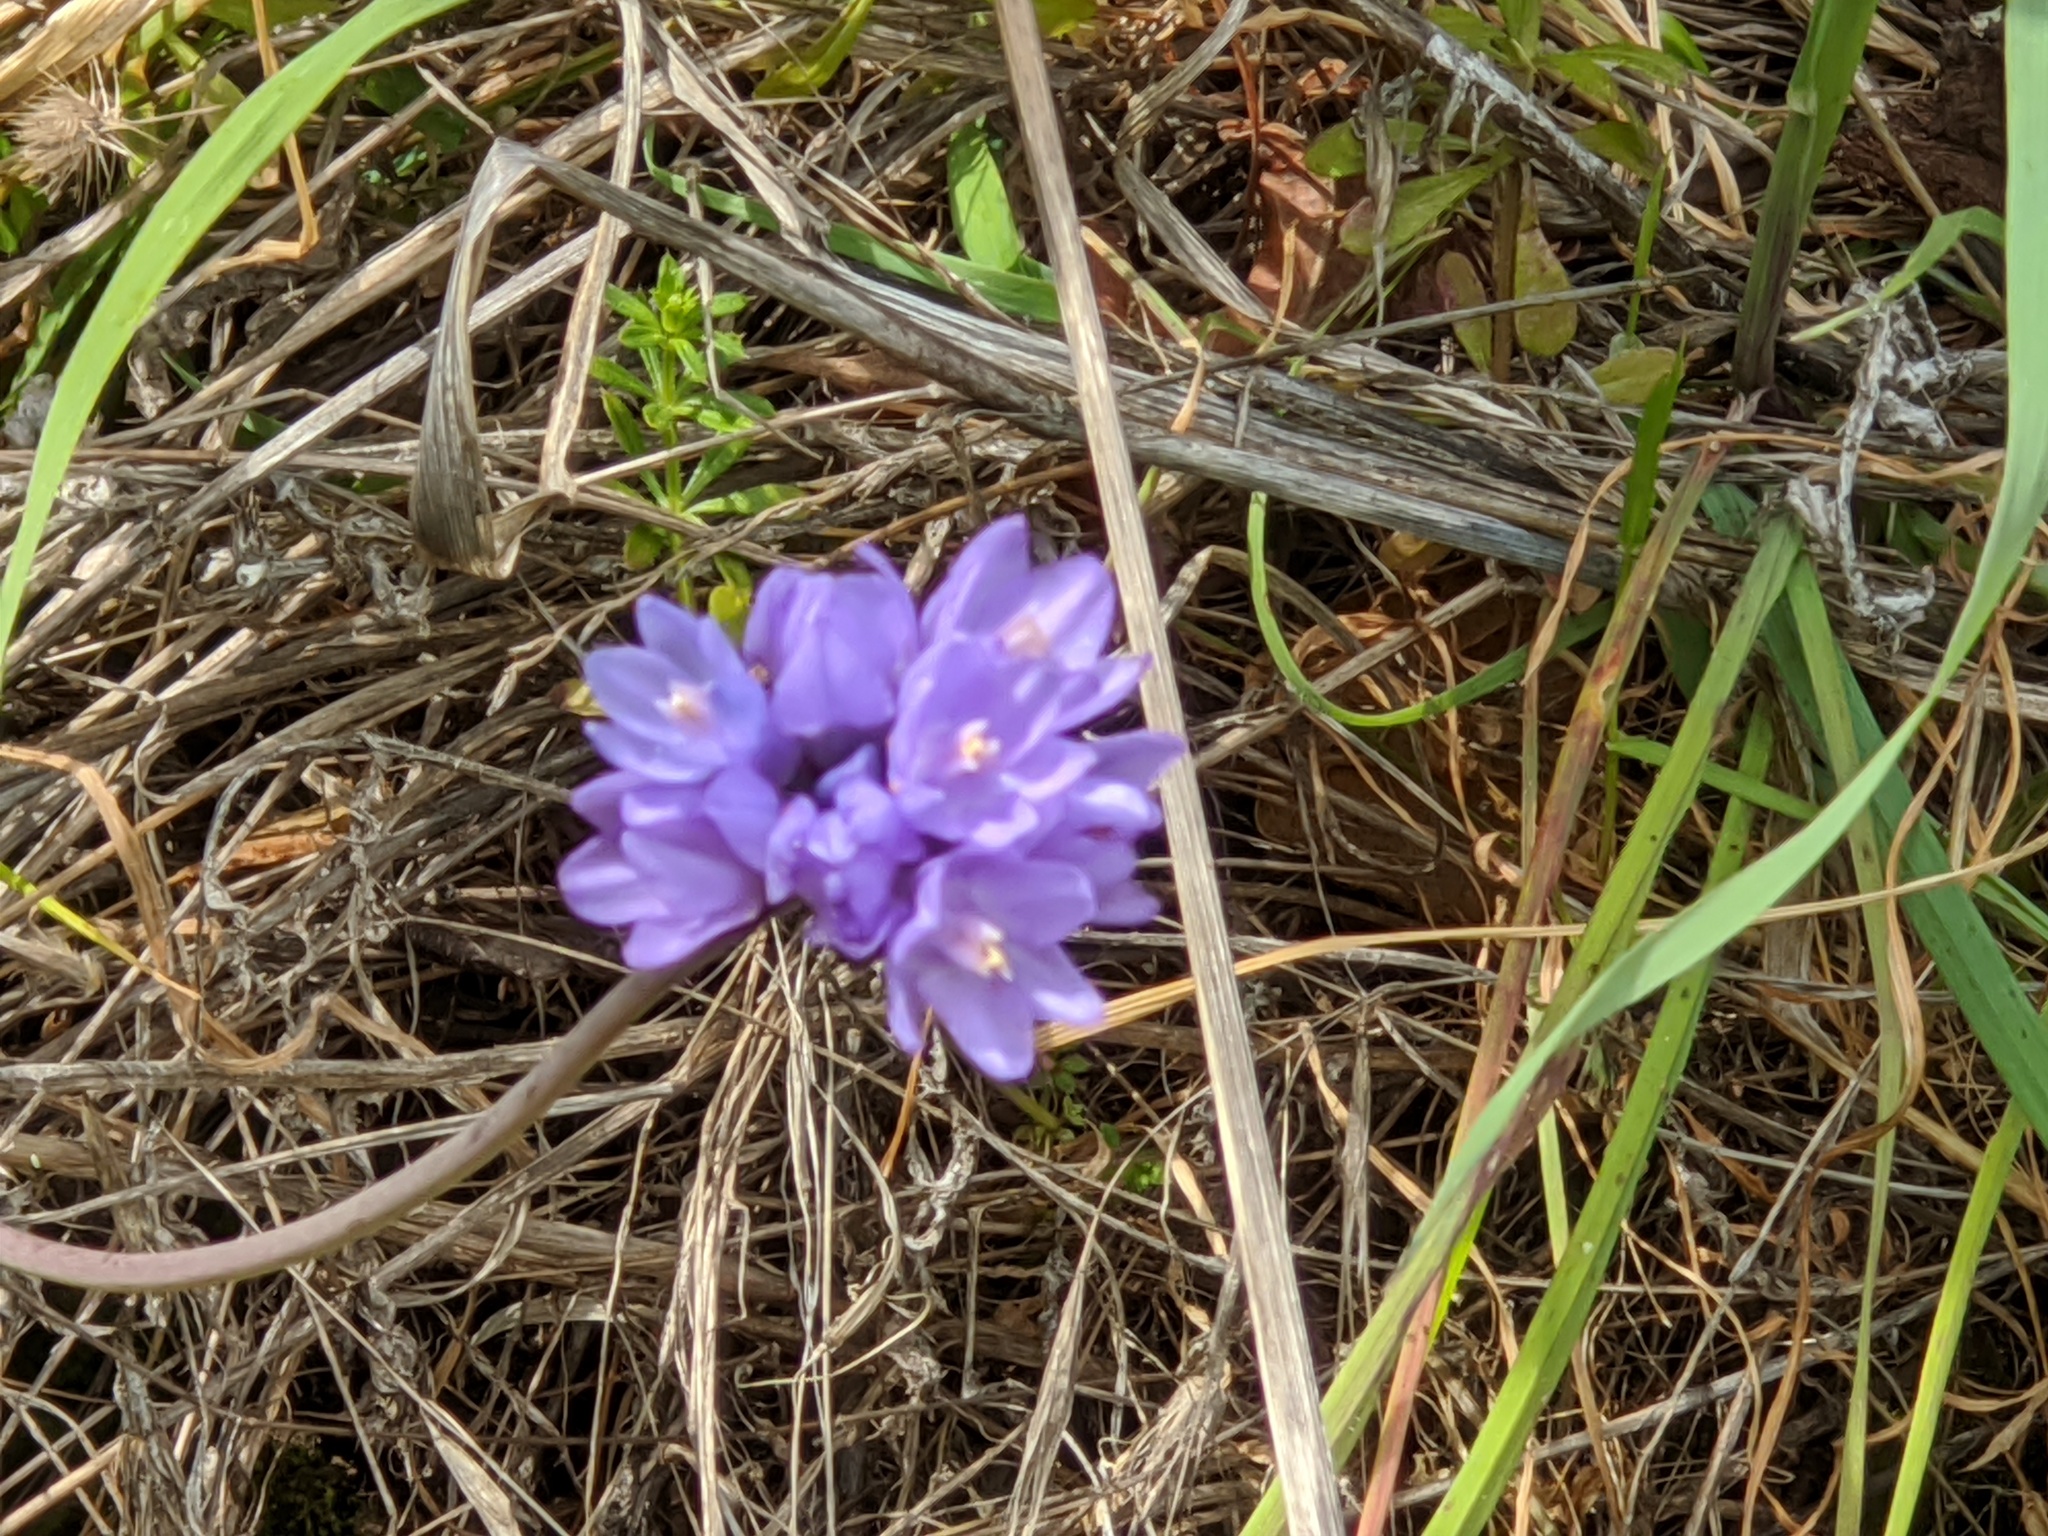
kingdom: Plantae
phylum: Tracheophyta
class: Liliopsida
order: Asparagales
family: Asparagaceae
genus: Dipterostemon
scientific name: Dipterostemon capitatus
